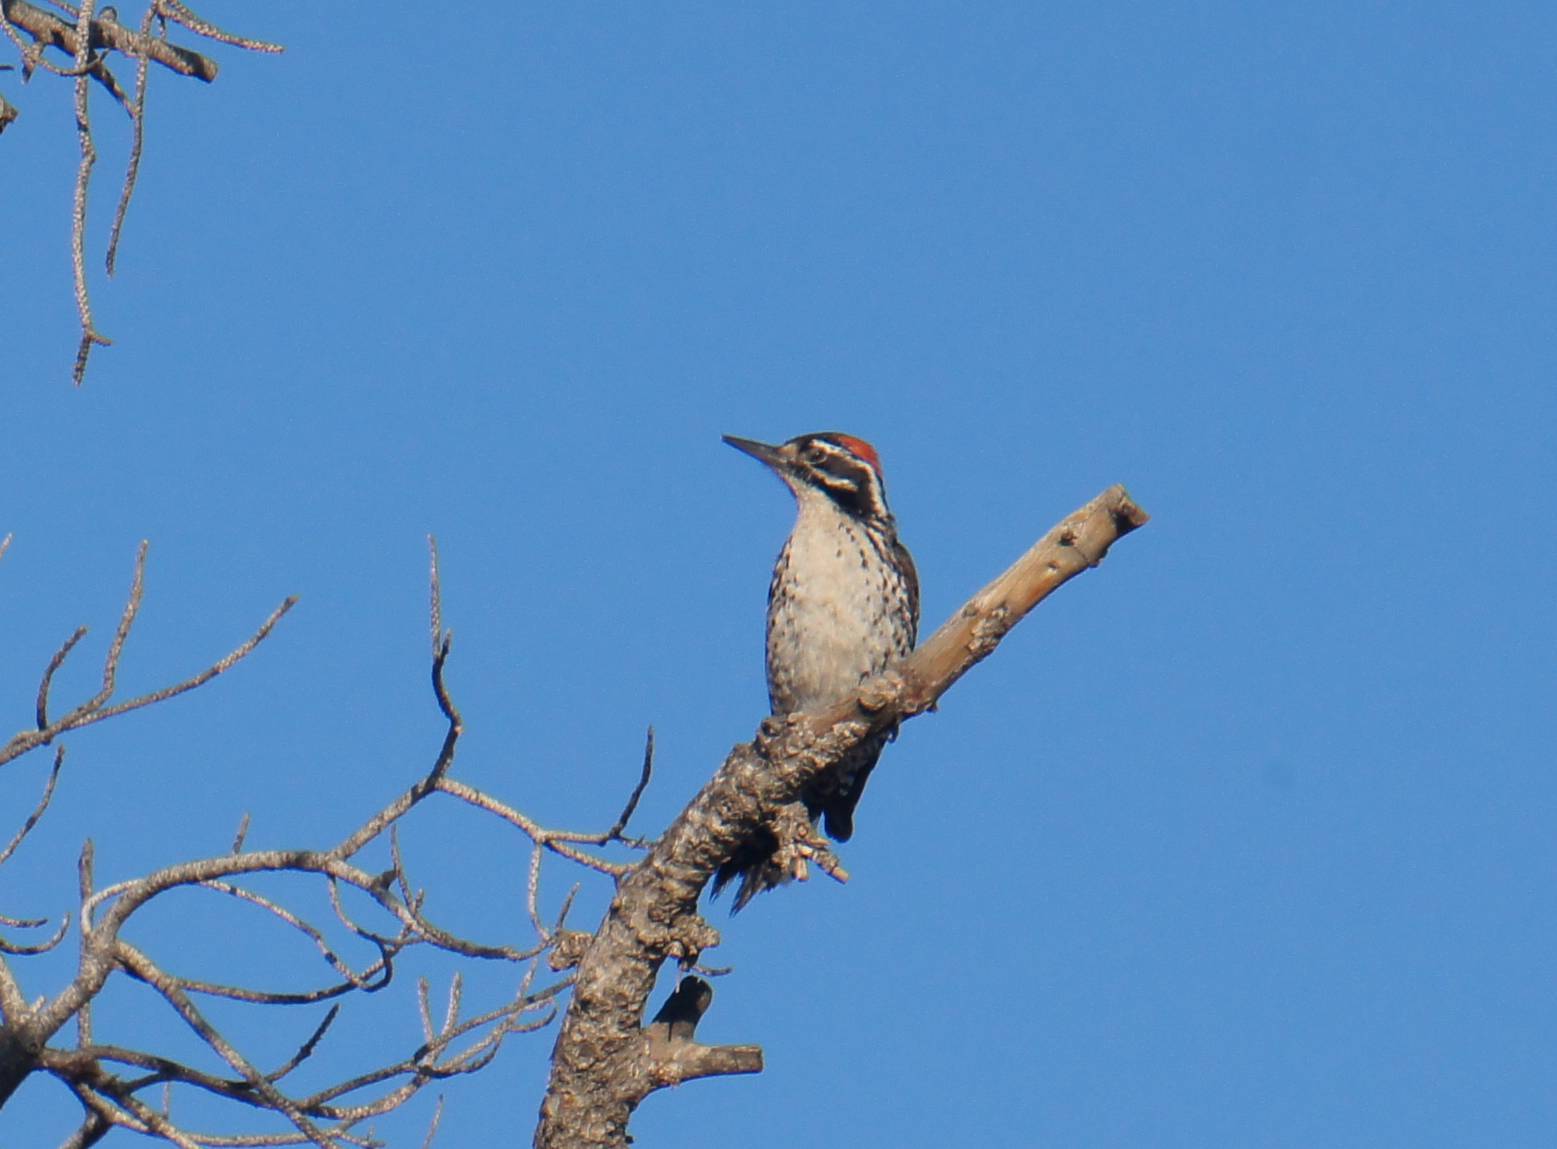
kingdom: Animalia
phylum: Chordata
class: Aves
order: Piciformes
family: Picidae
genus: Dryobates
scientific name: Dryobates nuttallii
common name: Nuttall's woodpecker
